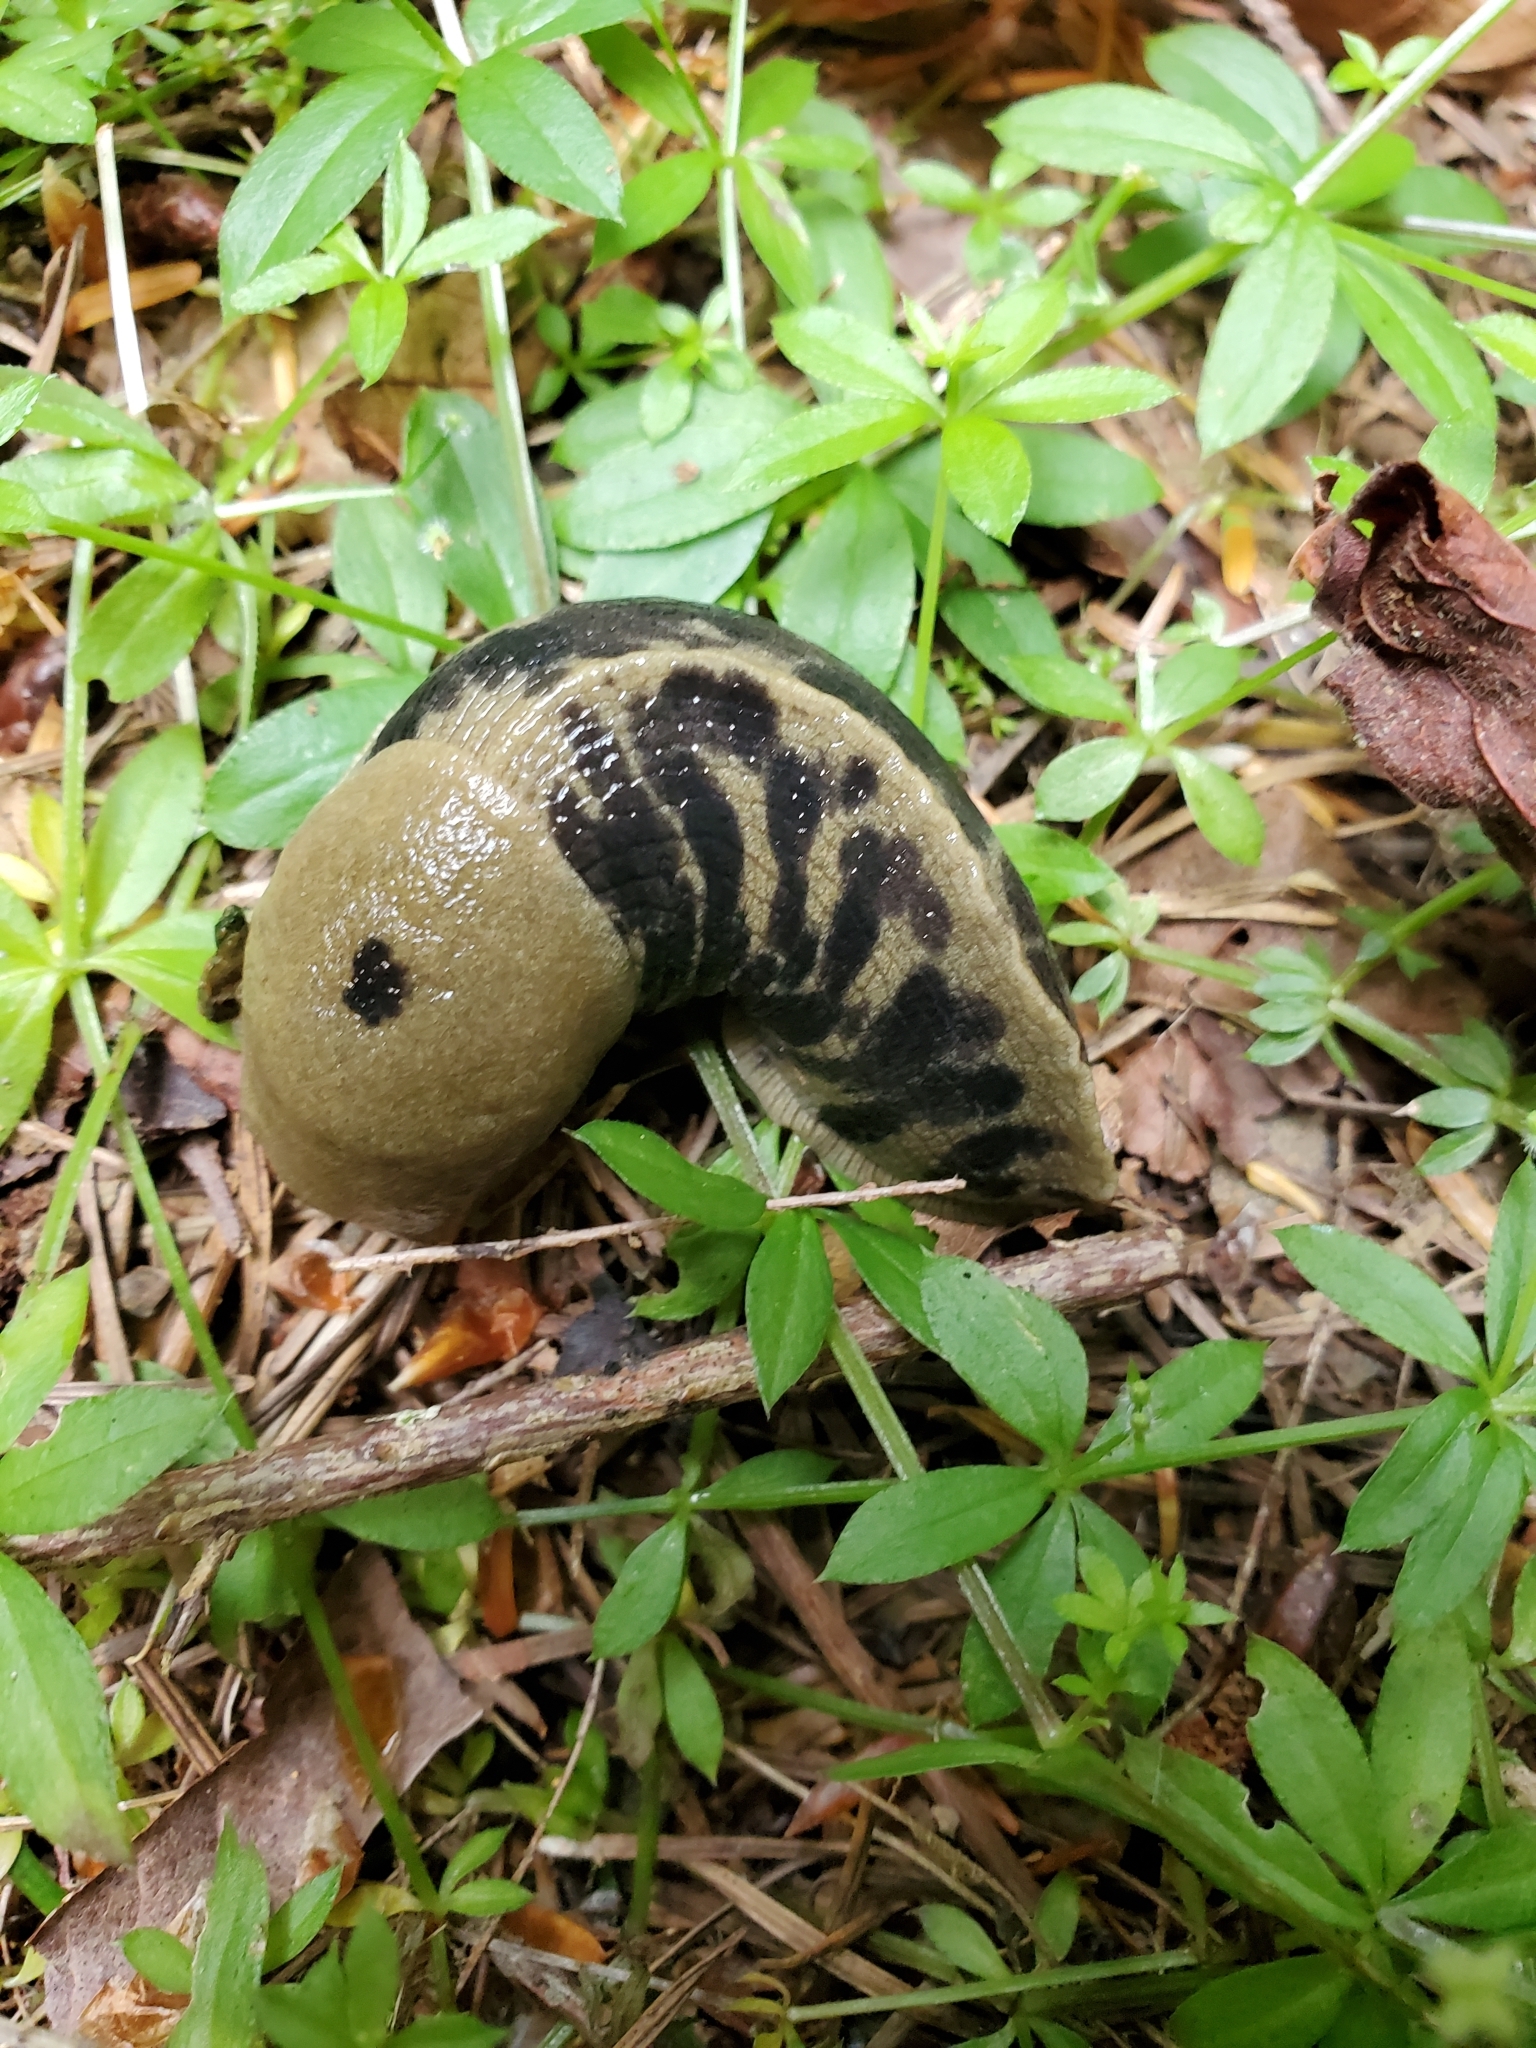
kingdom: Animalia
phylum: Mollusca
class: Gastropoda
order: Stylommatophora
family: Ariolimacidae
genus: Ariolimax
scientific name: Ariolimax columbianus
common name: Pacific banana slug
